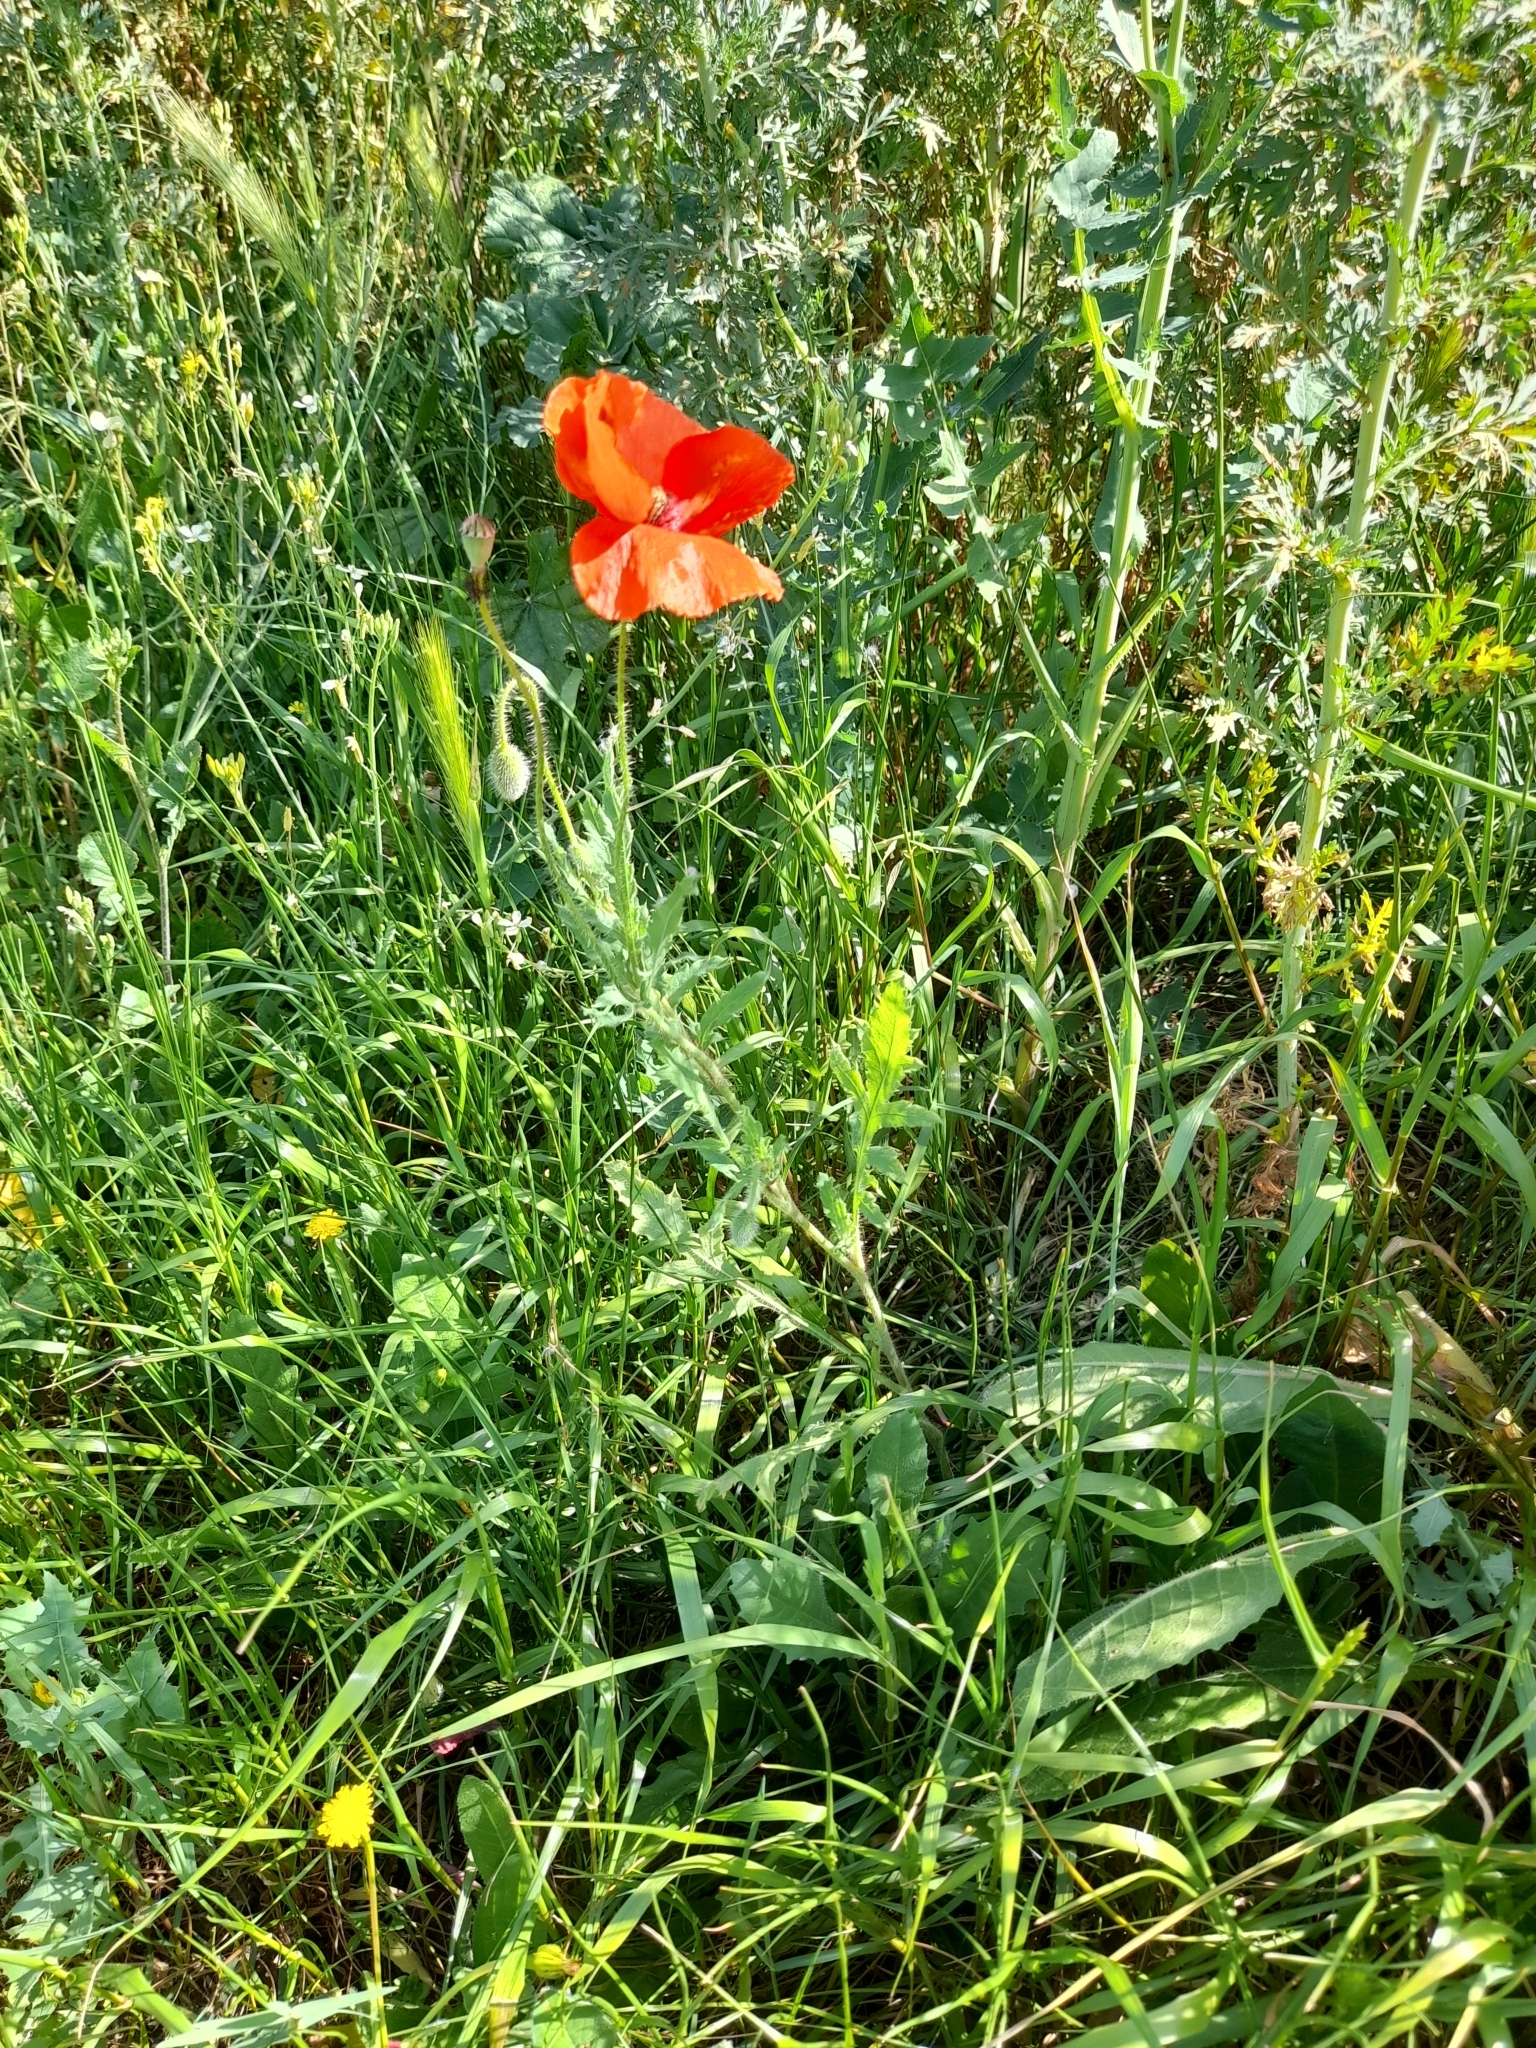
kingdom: Plantae
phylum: Tracheophyta
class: Magnoliopsida
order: Ranunculales
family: Papaveraceae
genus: Papaver
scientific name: Papaver rhoeas
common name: Corn poppy
